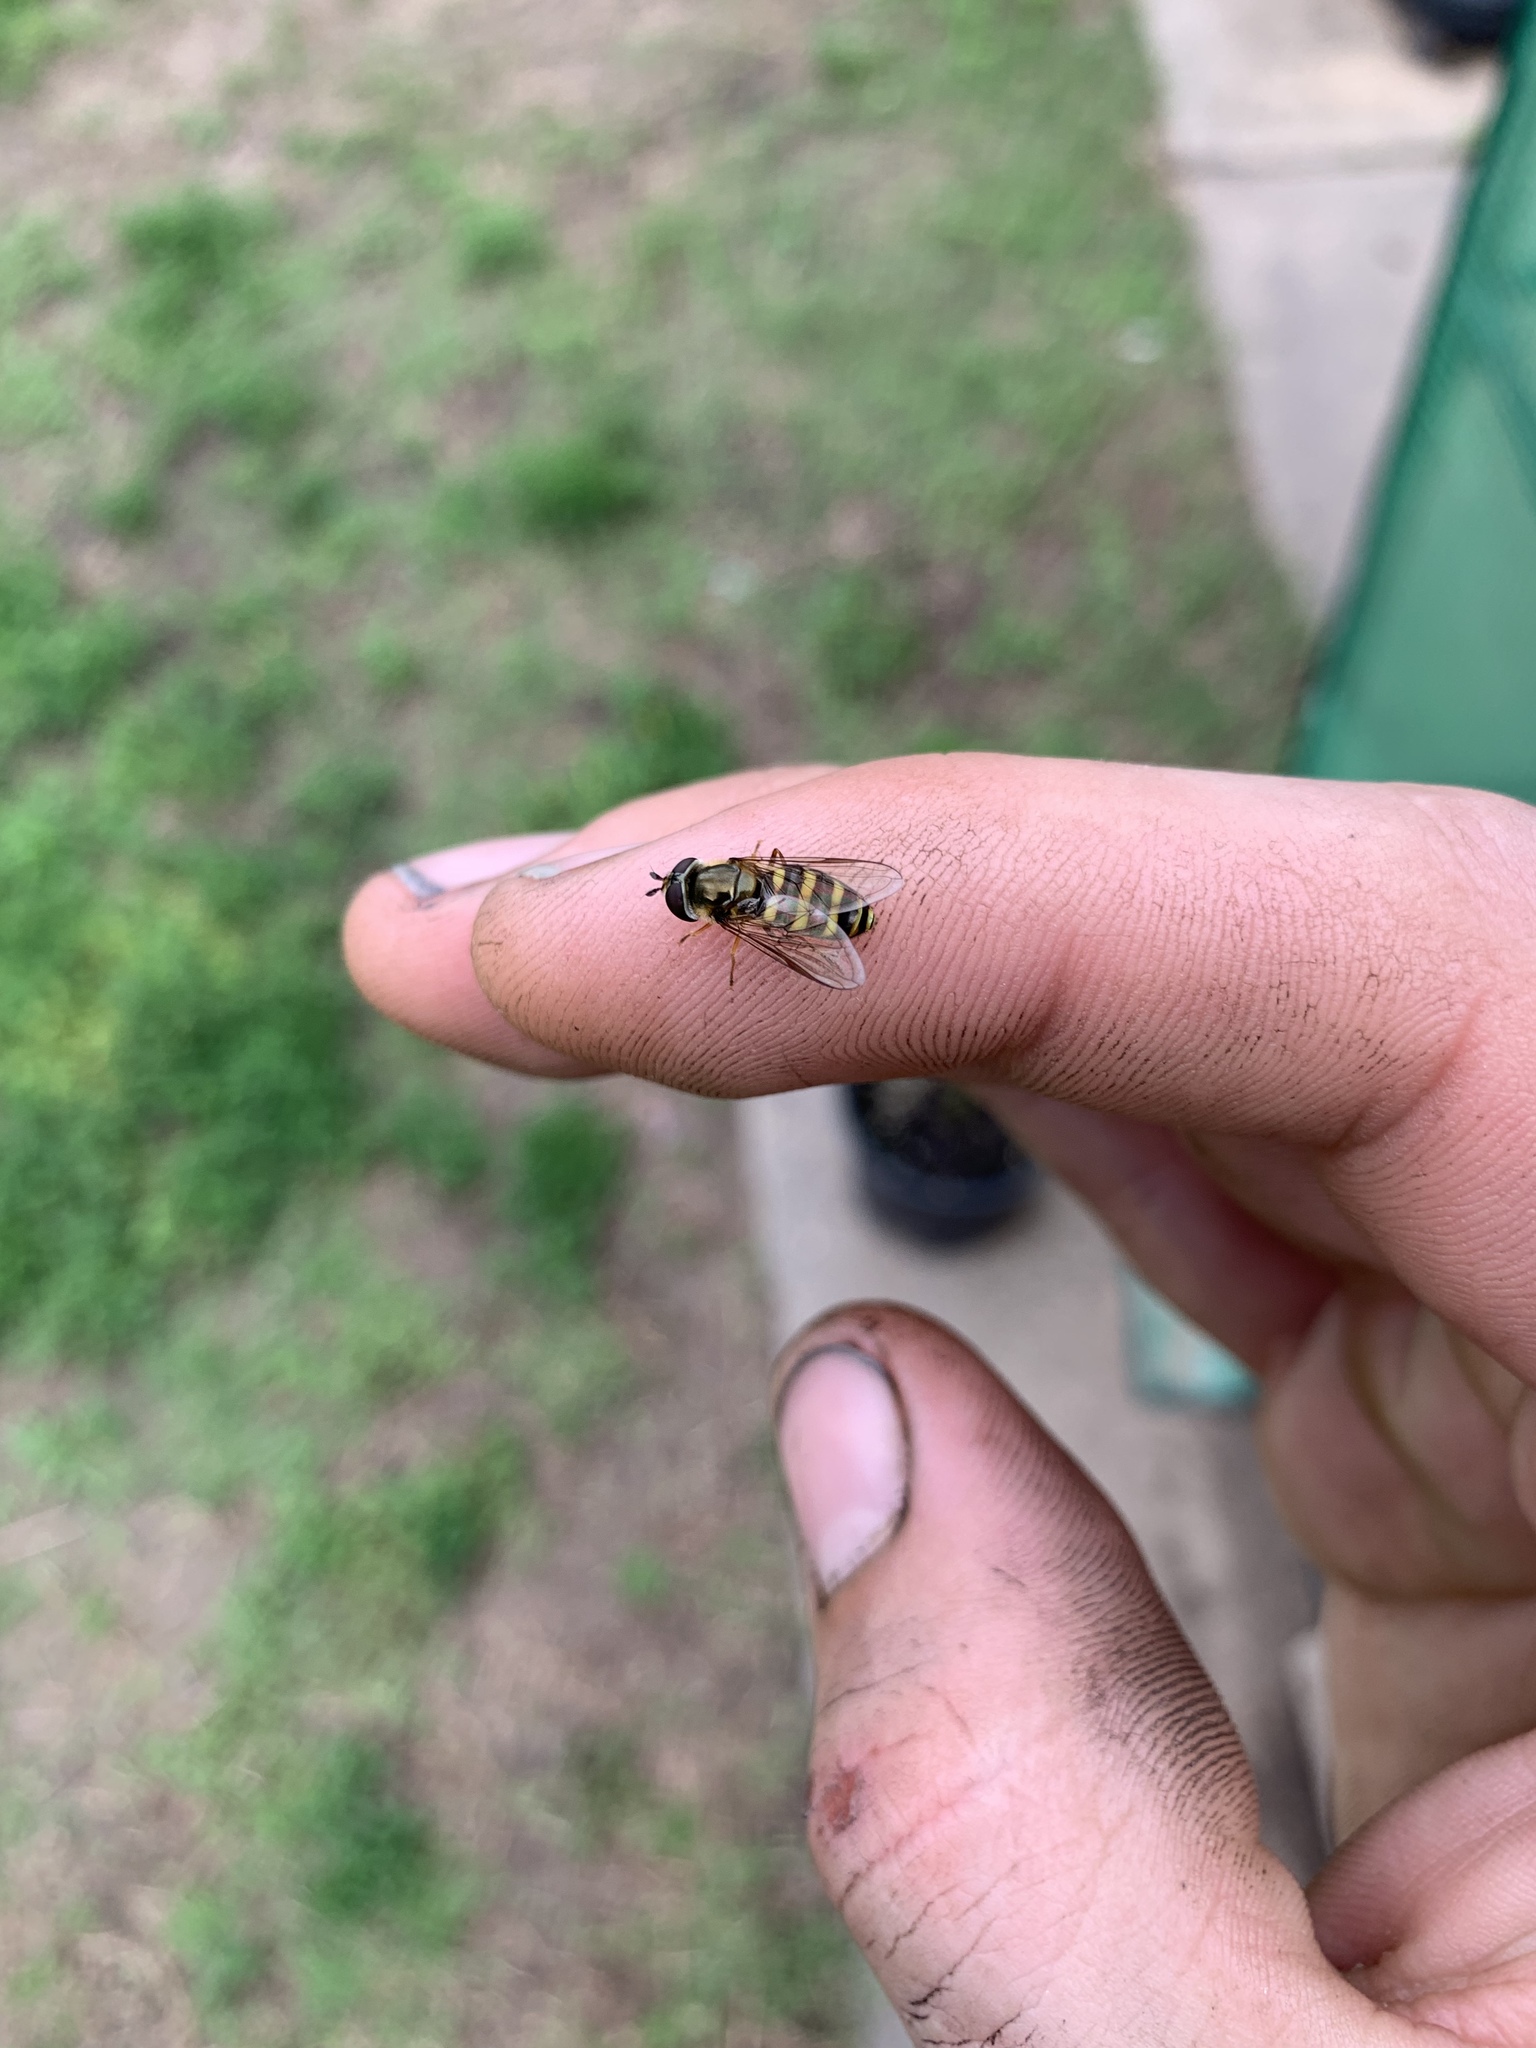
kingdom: Animalia
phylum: Arthropoda
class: Insecta
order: Diptera
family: Syrphidae
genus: Eupeodes
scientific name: Eupeodes
